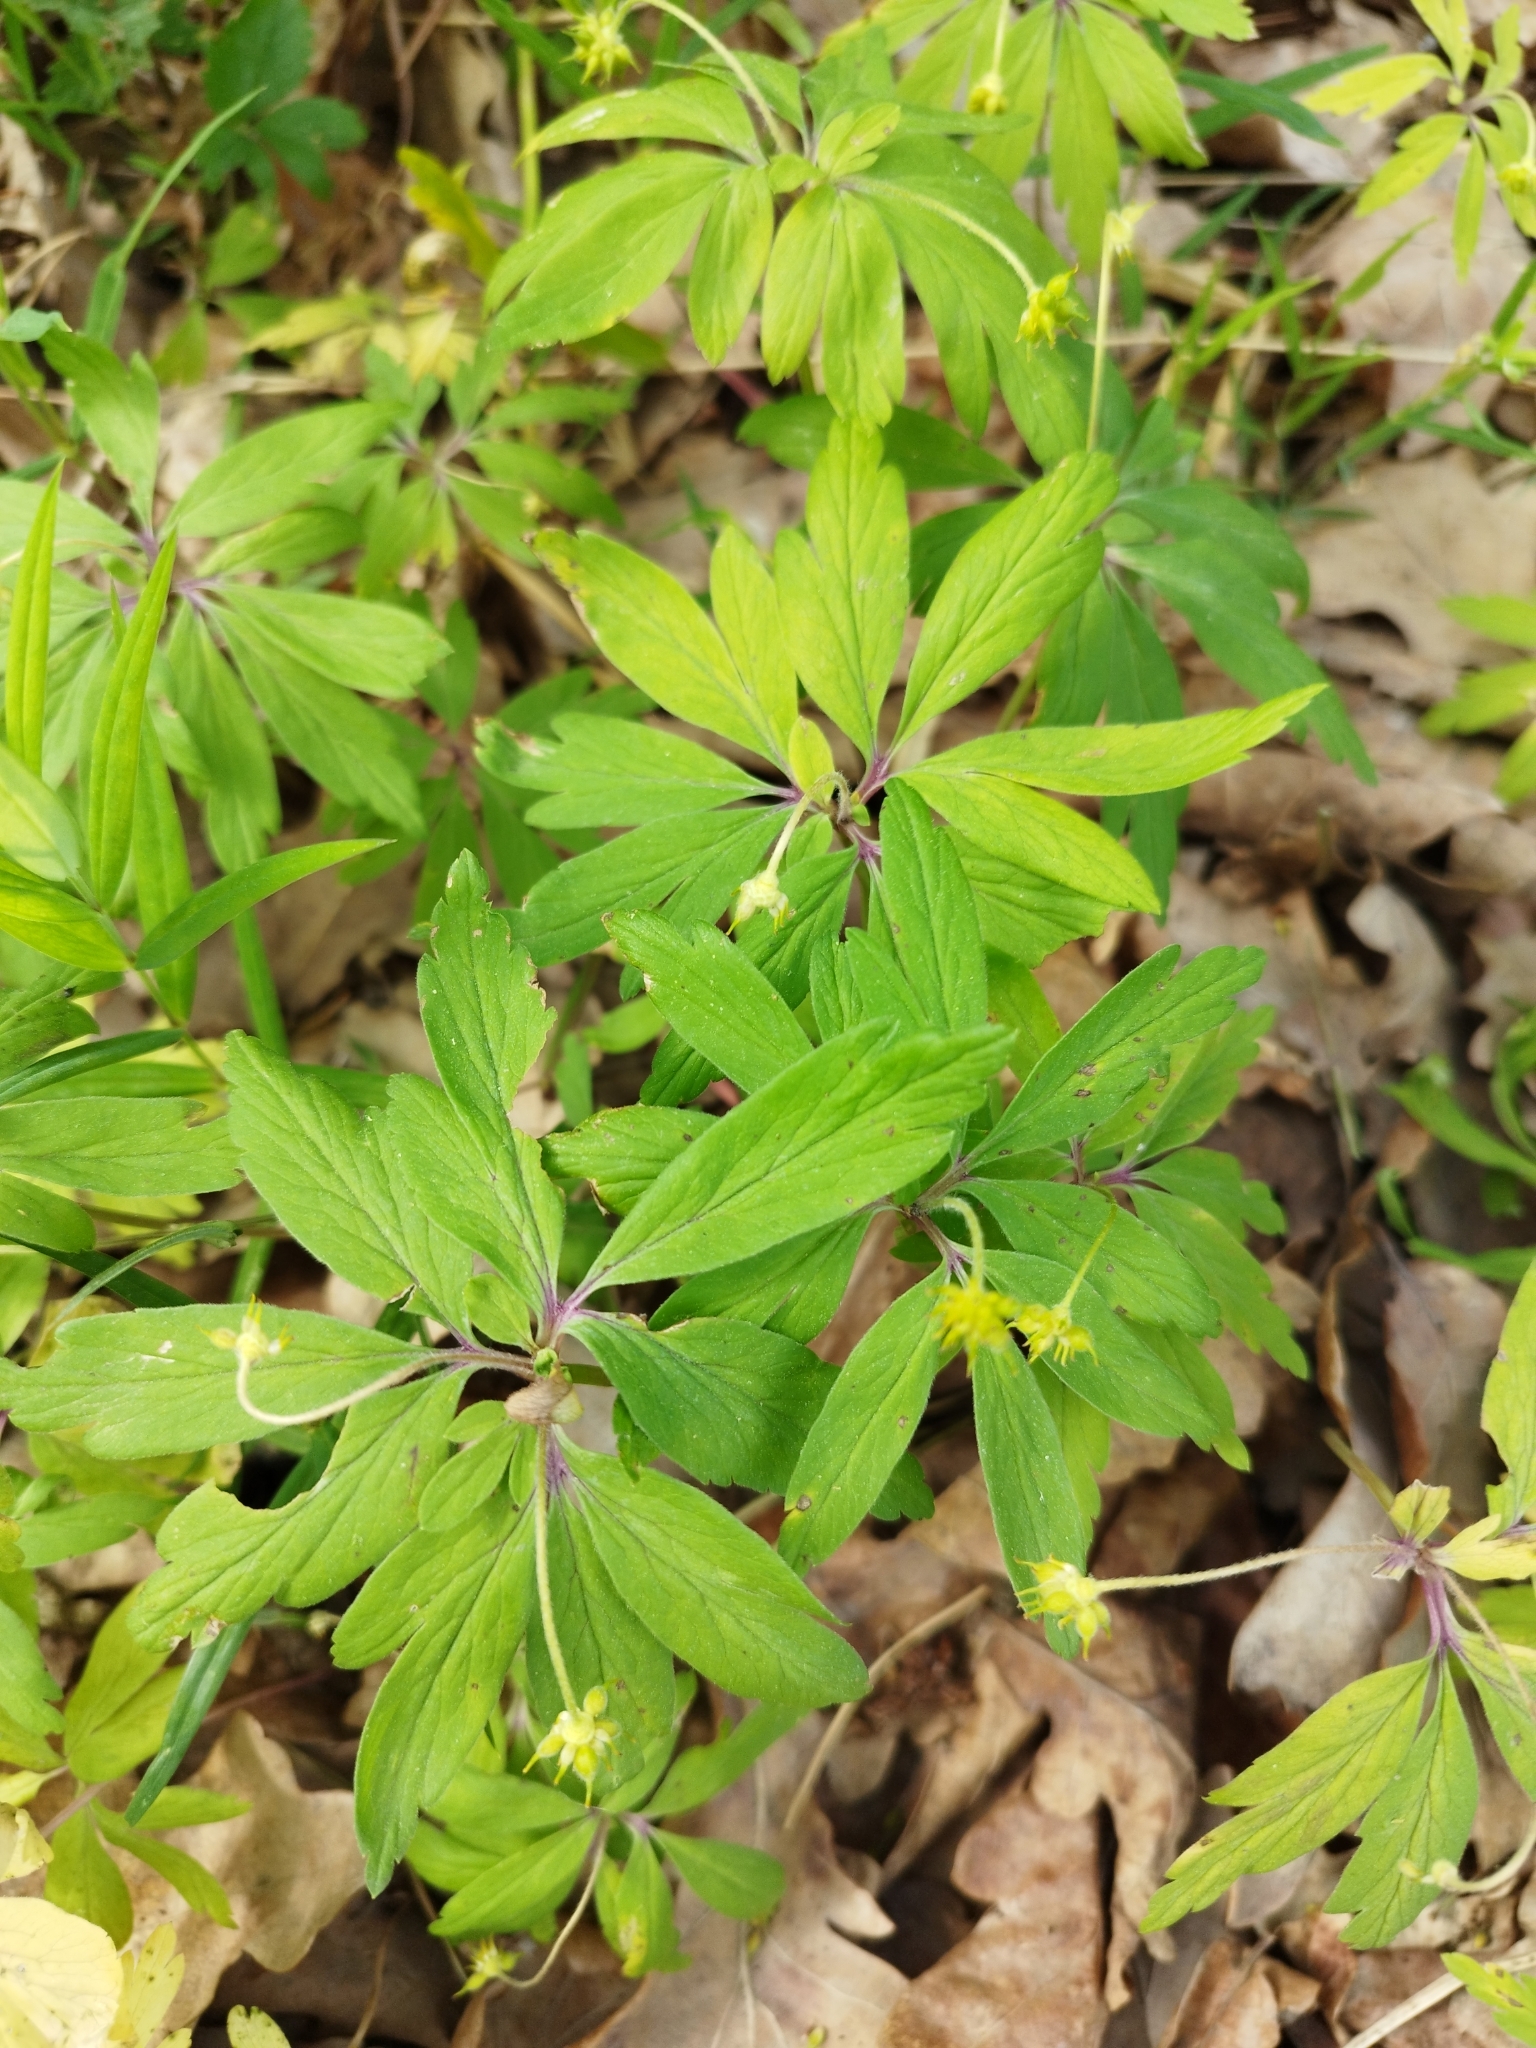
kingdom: Plantae
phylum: Tracheophyta
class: Magnoliopsida
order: Ranunculales
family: Ranunculaceae
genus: Anemone
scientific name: Anemone ranunculoides
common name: Yellow anemone
